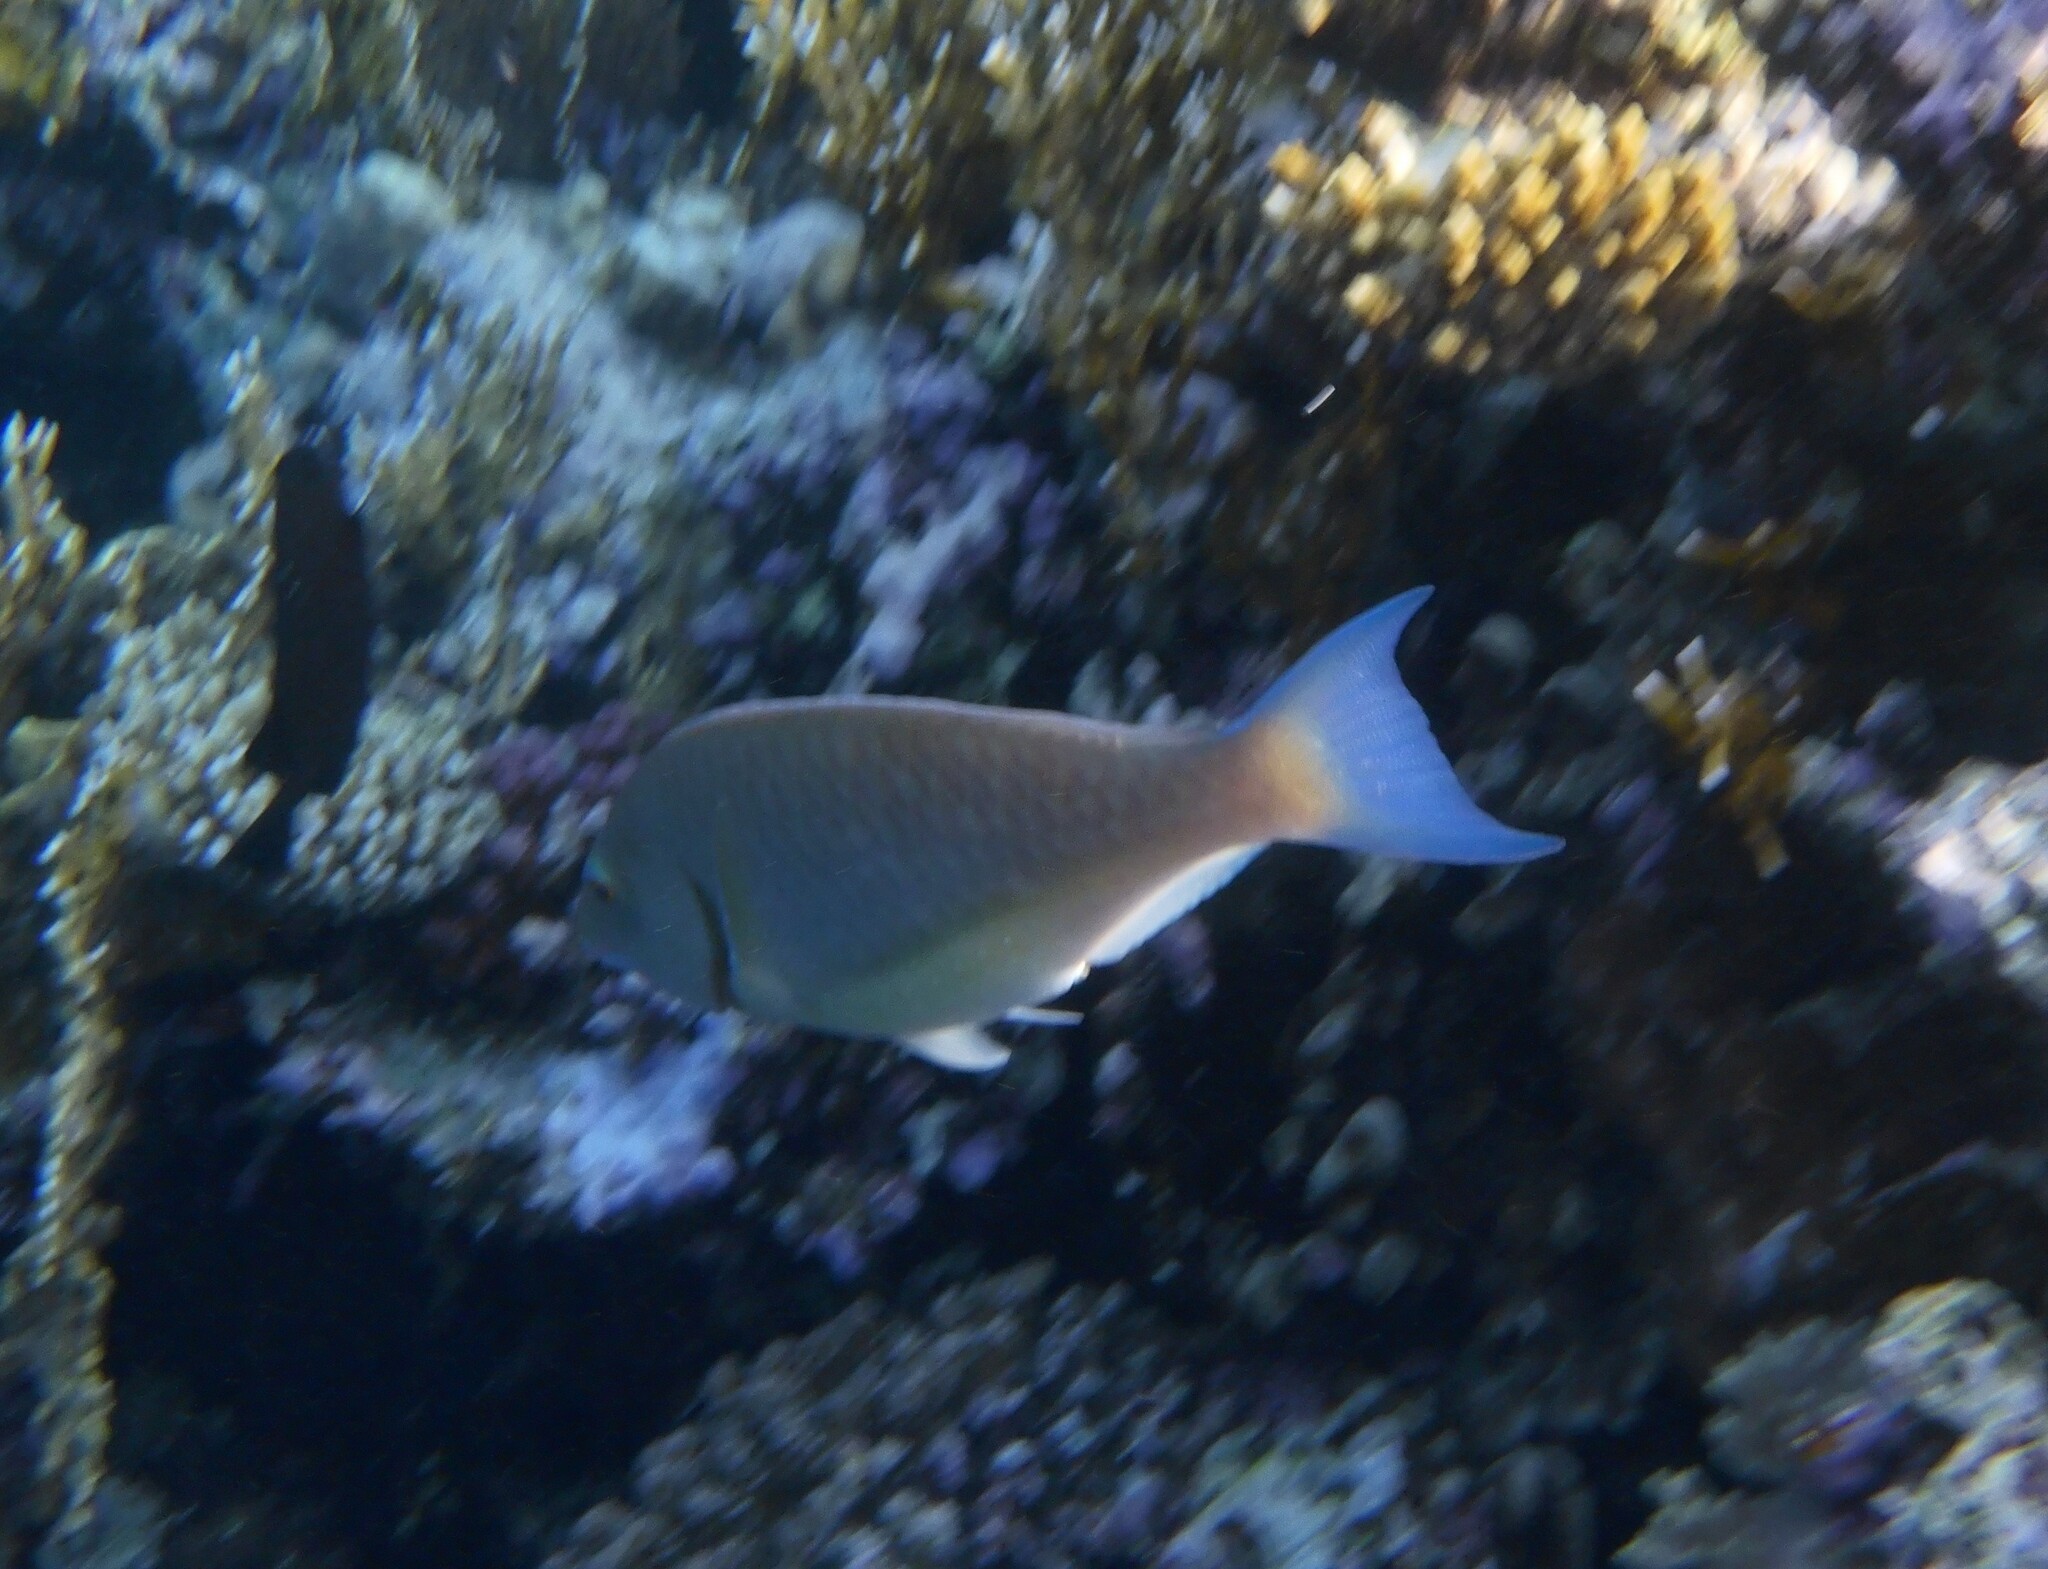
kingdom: Animalia
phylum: Chordata
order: Perciformes
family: Scaridae
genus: Hipposcarus
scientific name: Hipposcarus harid
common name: Candelamoa parrotfish
